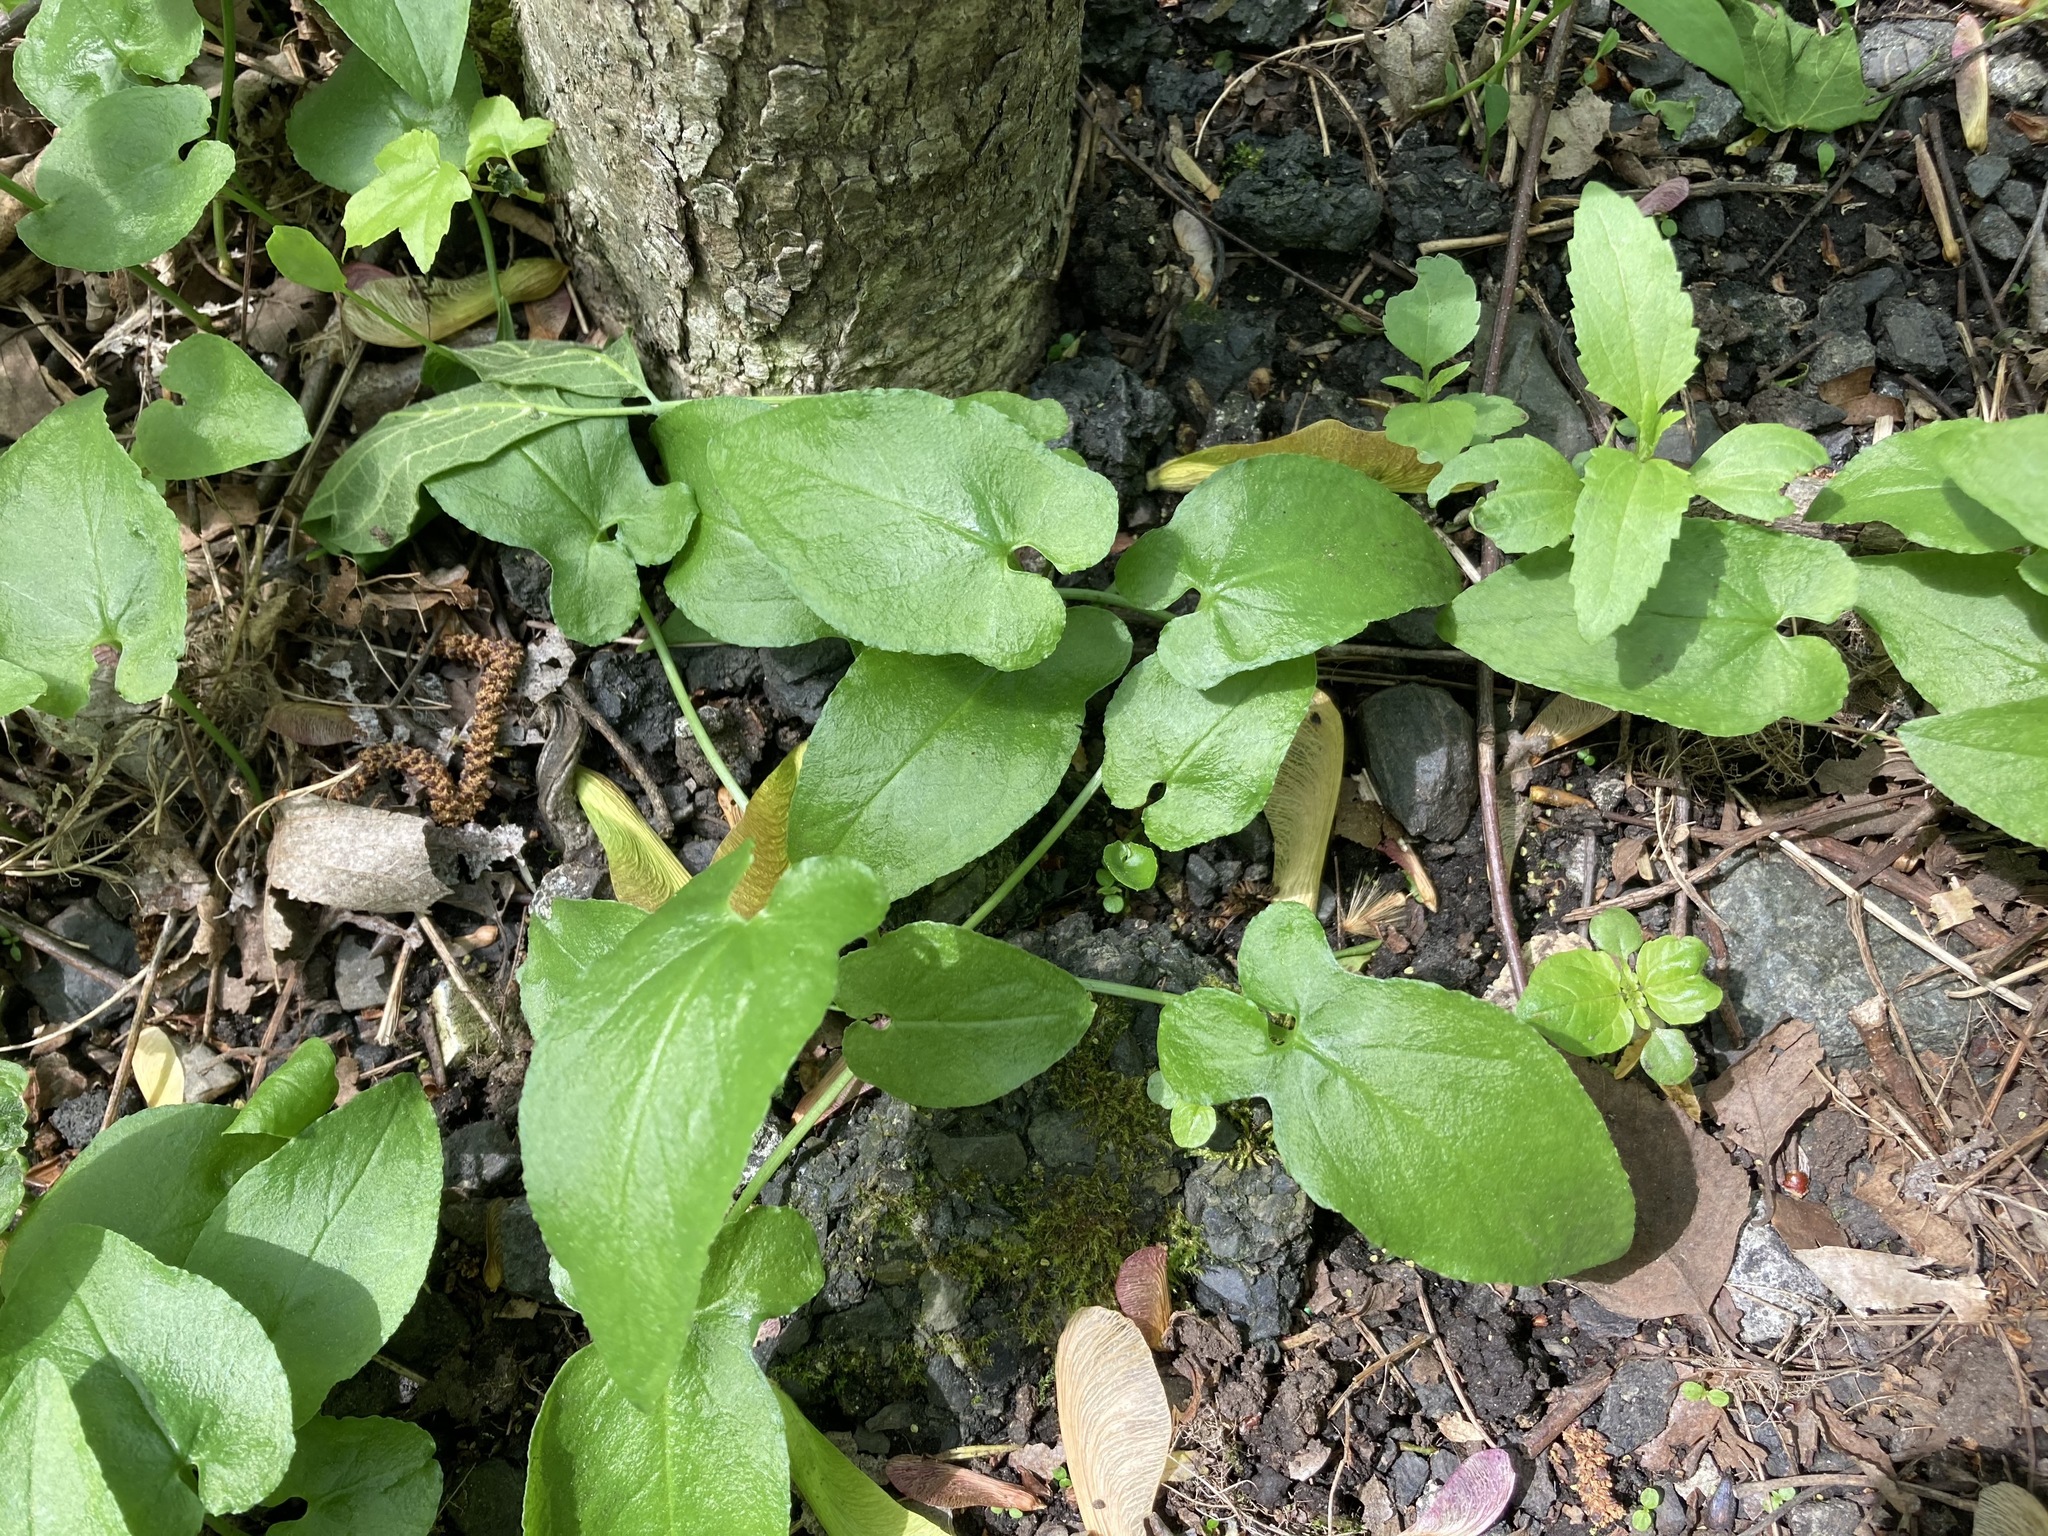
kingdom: Plantae
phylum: Tracheophyta
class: Liliopsida
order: Alismatales
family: Araceae
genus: Pinellia
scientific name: Pinellia ternata
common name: Pinellia
